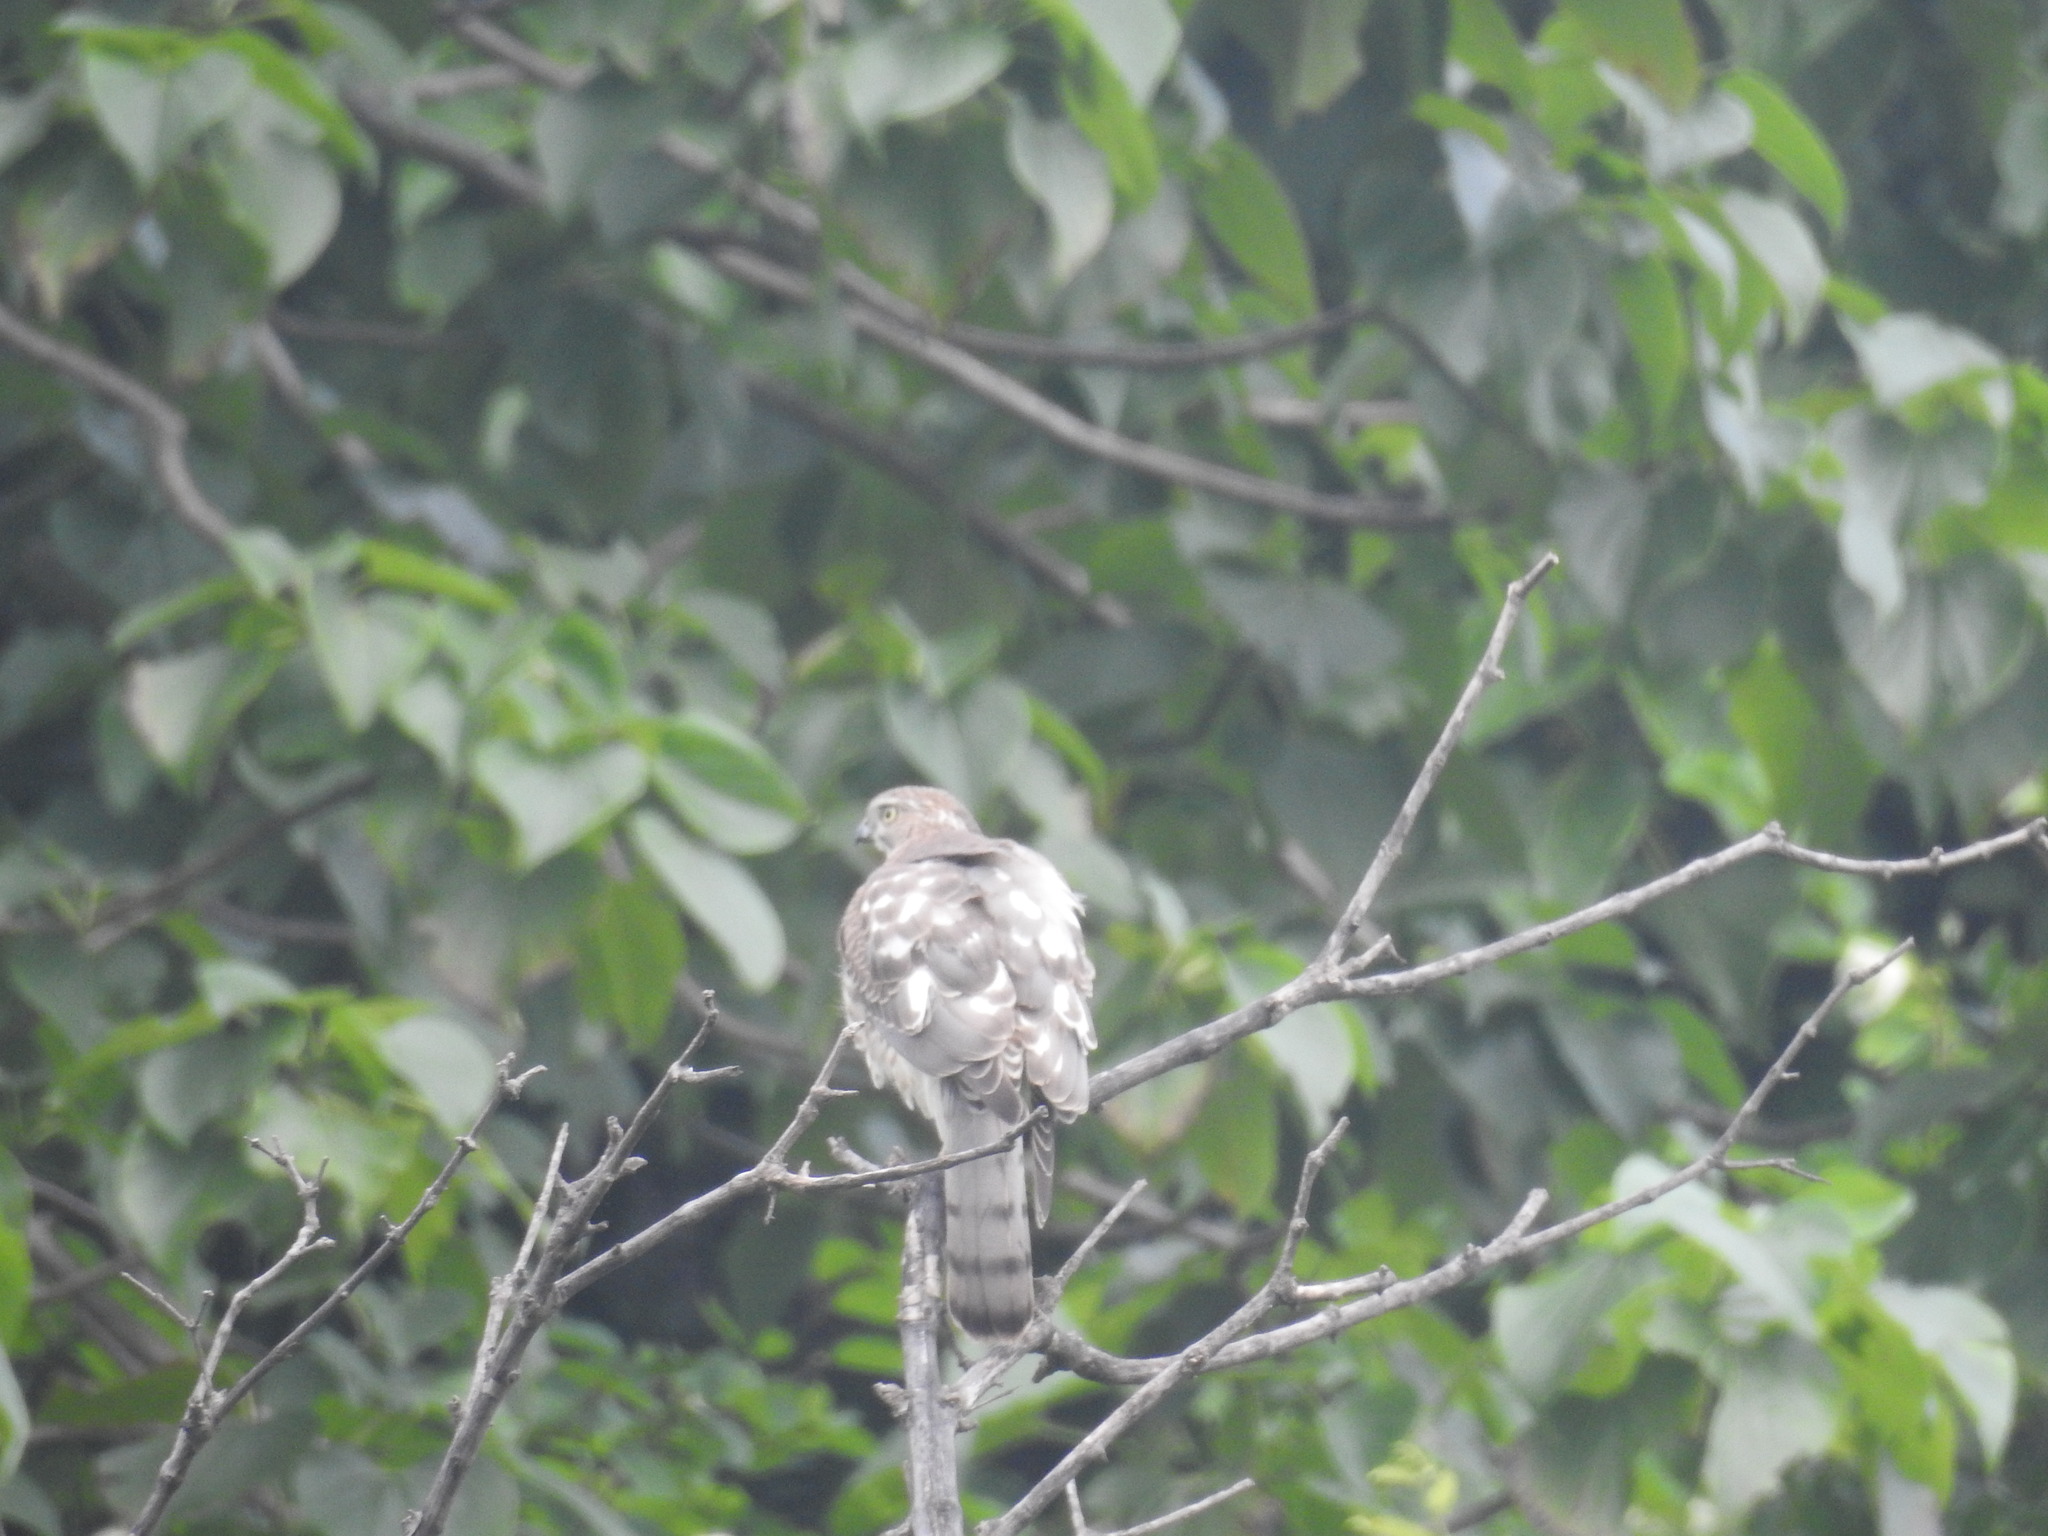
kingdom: Animalia
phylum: Chordata
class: Aves
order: Accipitriformes
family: Accipitridae
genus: Accipiter
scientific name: Accipiter badius
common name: Shikra
